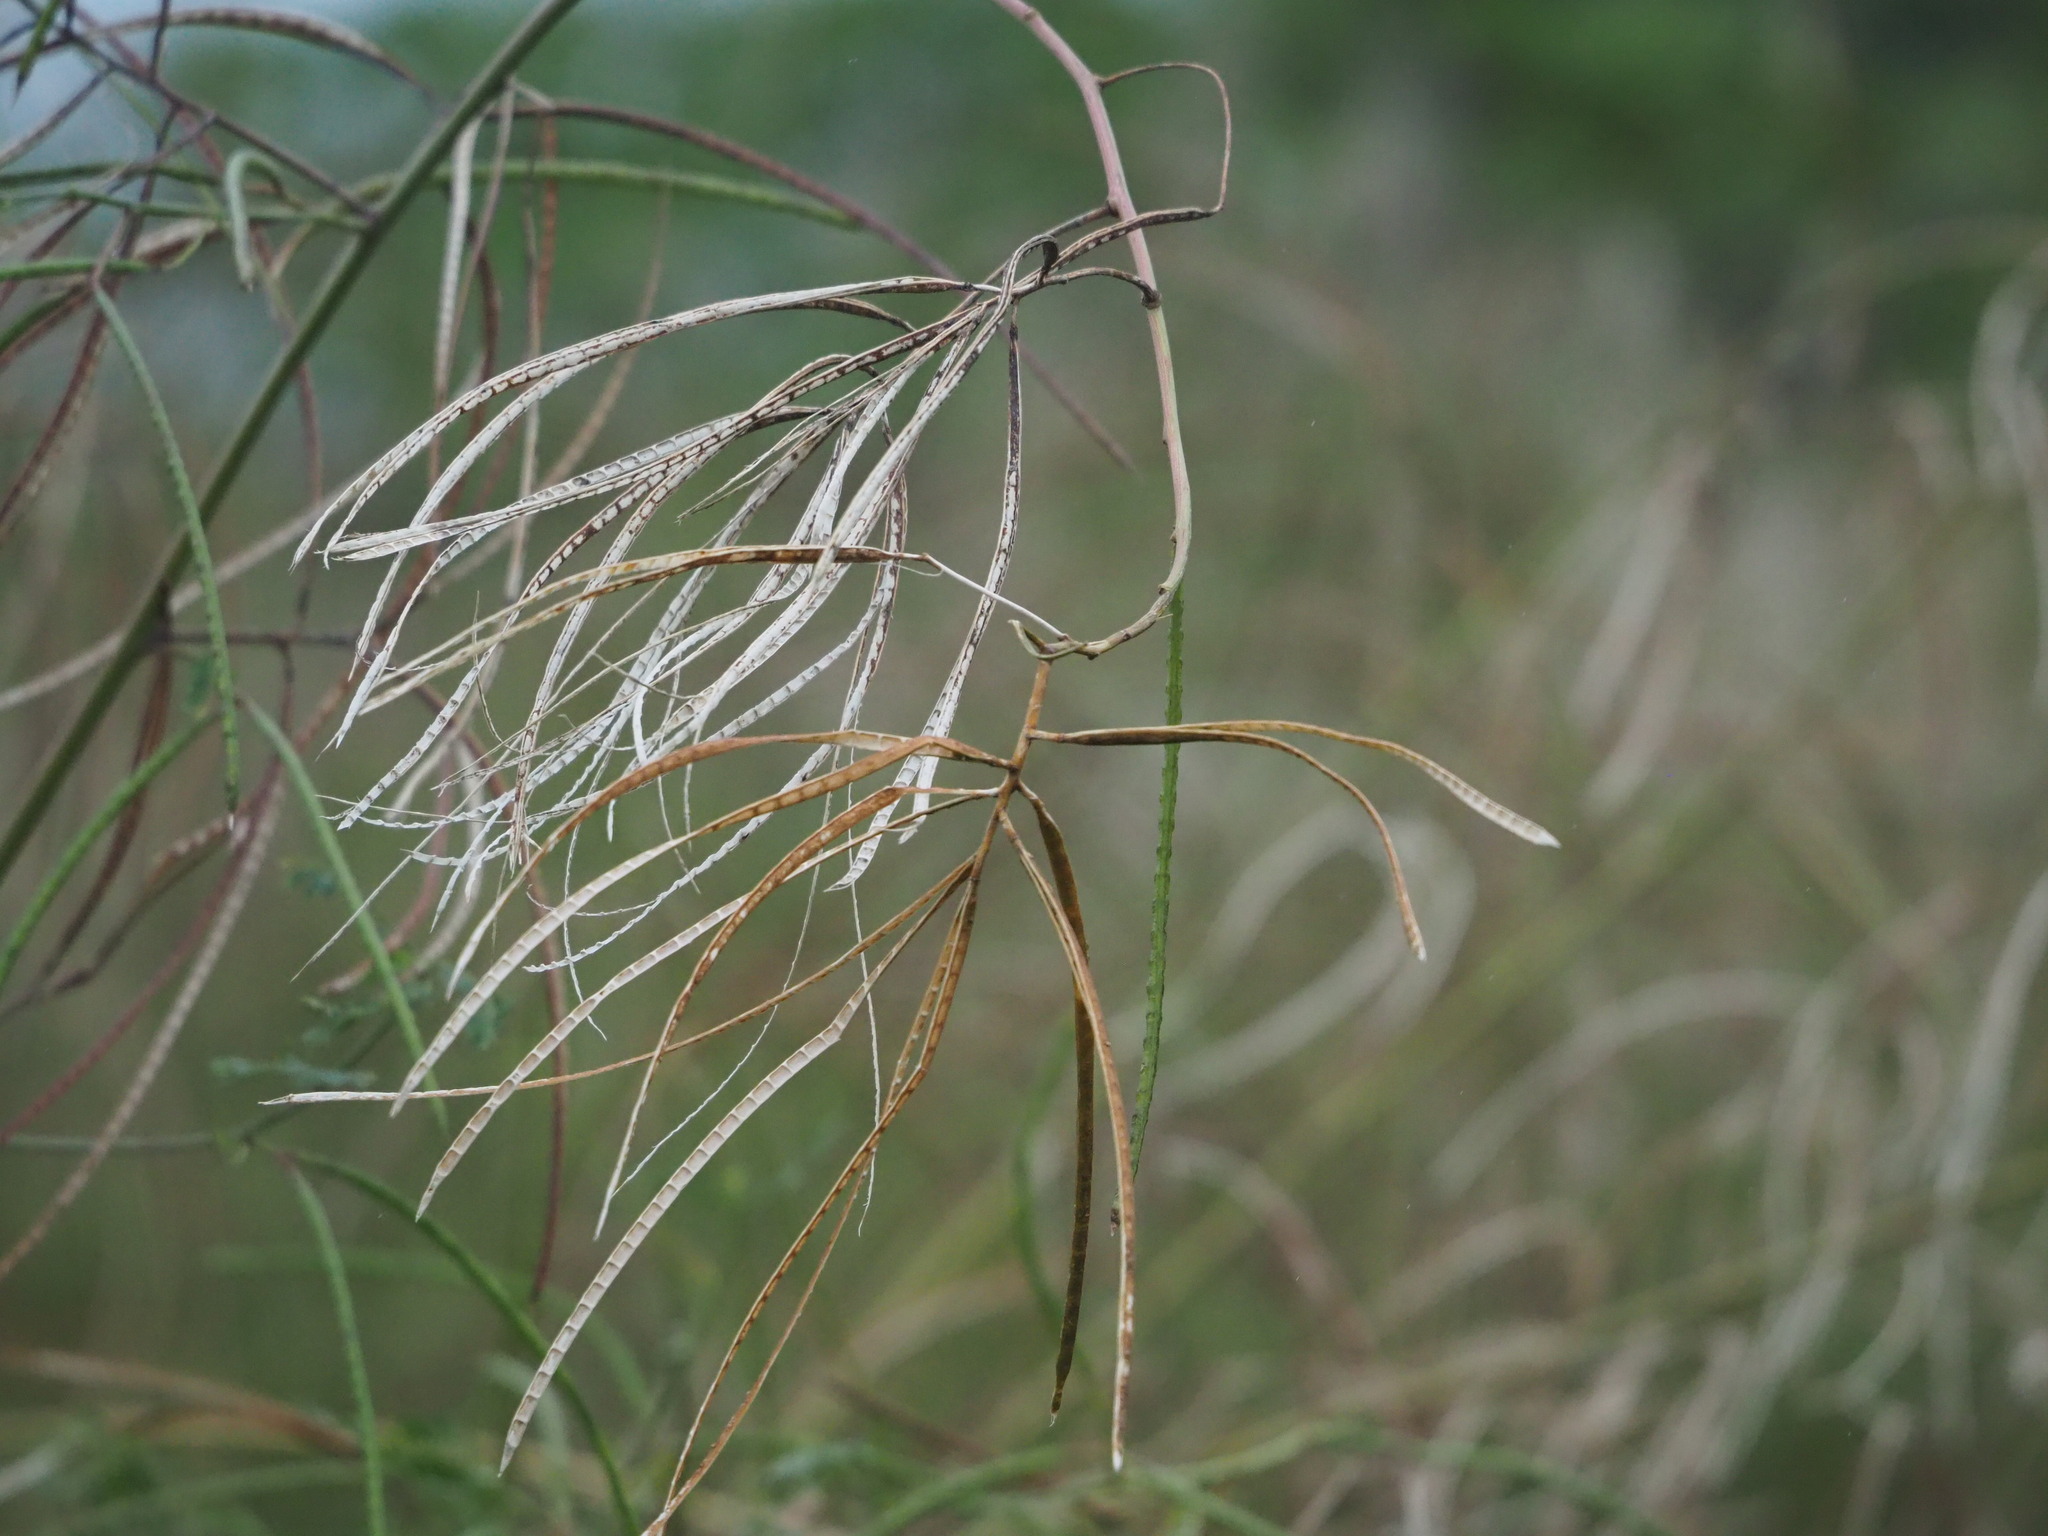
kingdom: Plantae
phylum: Tracheophyta
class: Magnoliopsida
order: Fabales
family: Fabaceae
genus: Sesbania
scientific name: Sesbania cannabina
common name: Canicha
